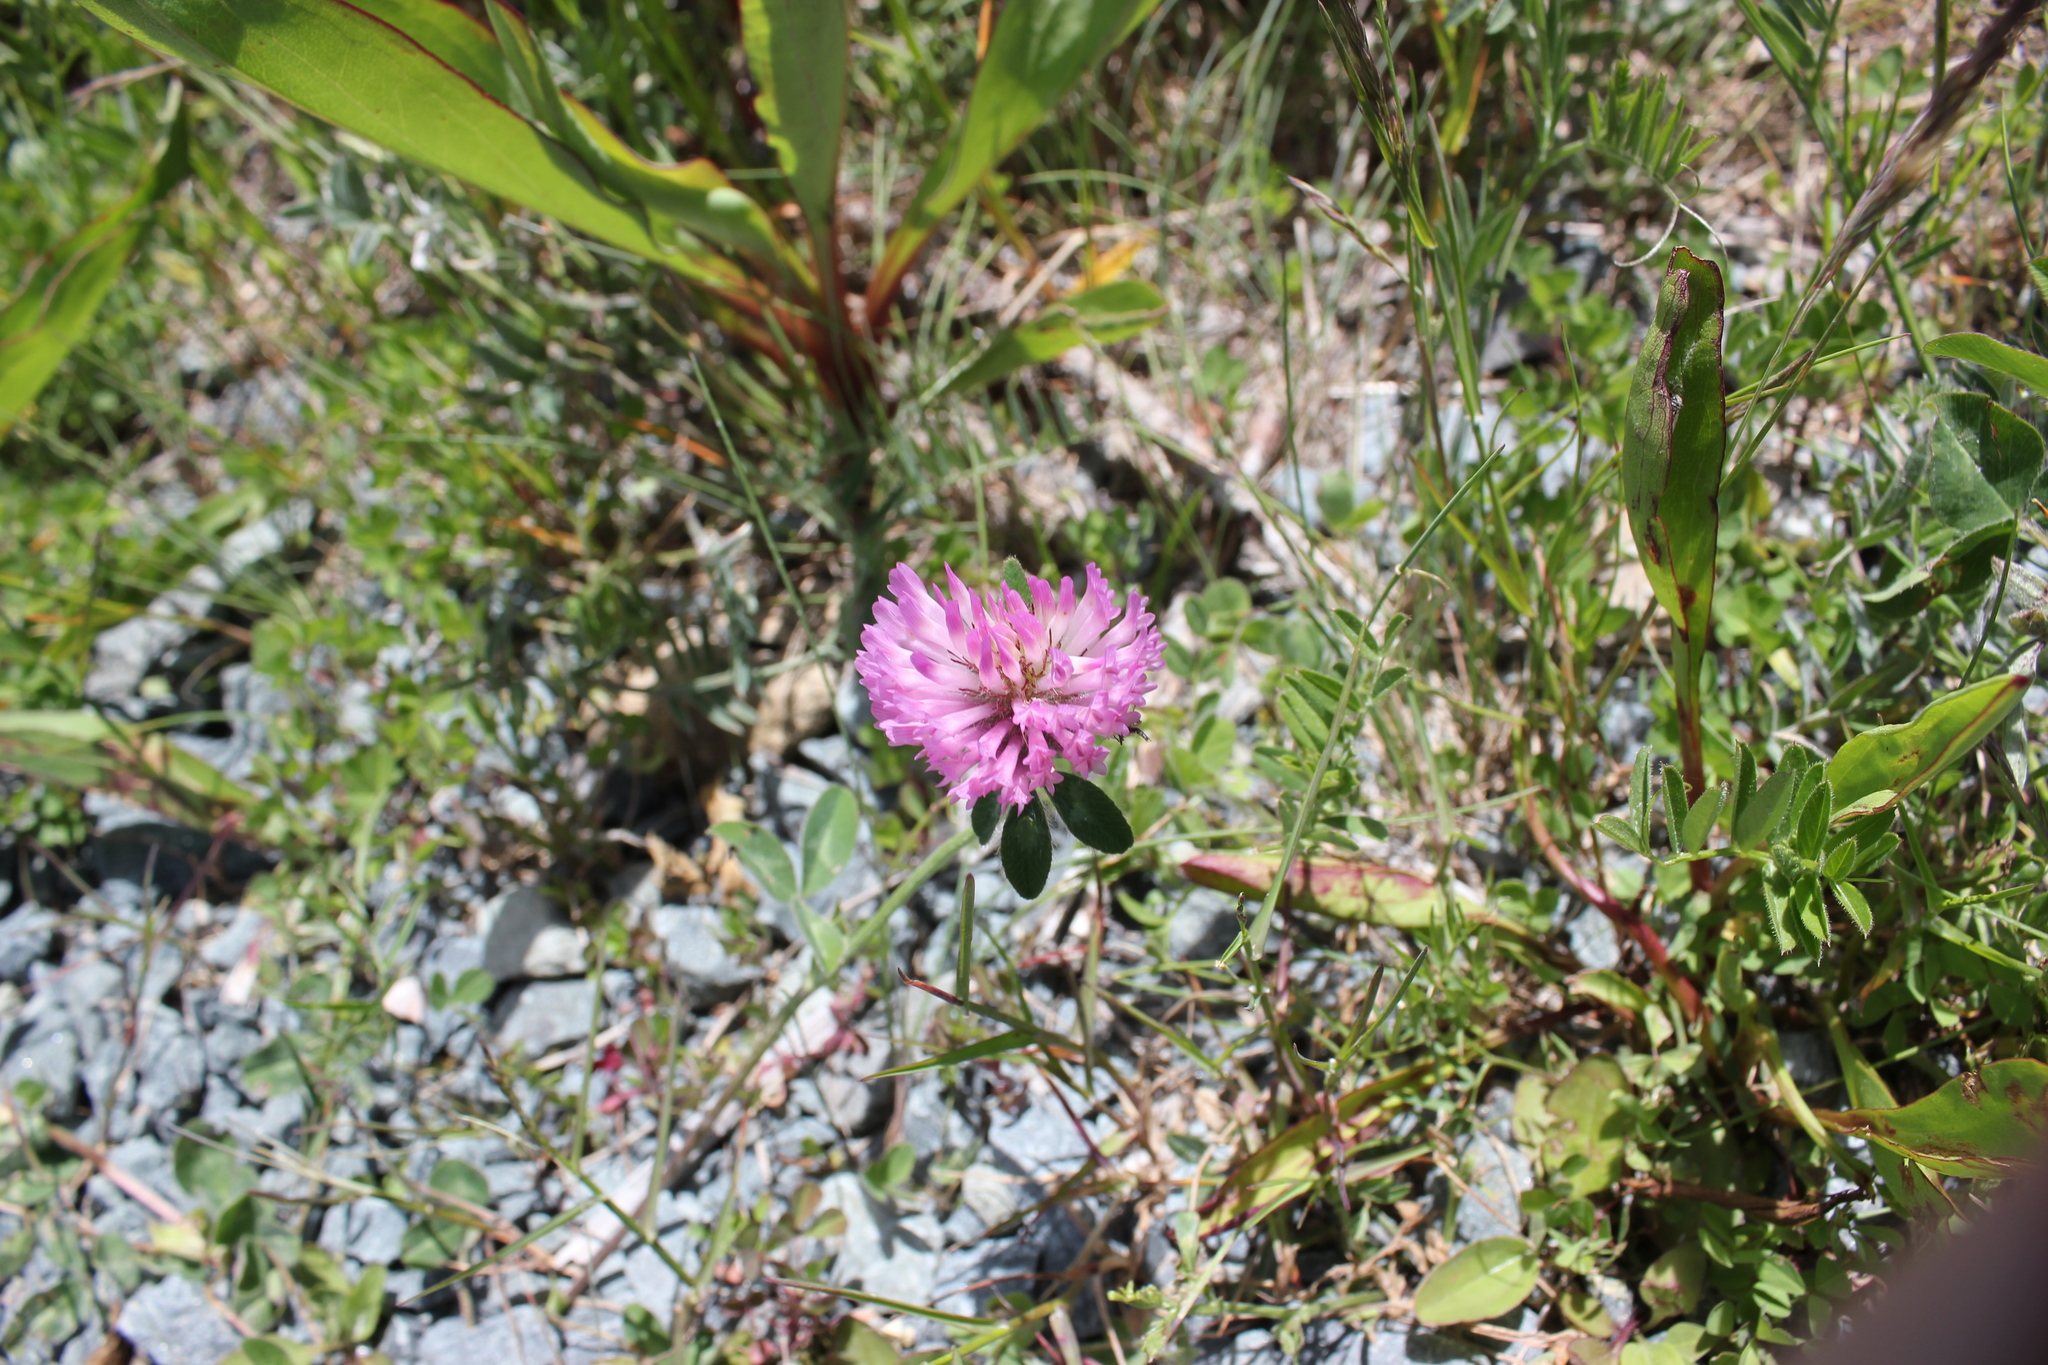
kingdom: Plantae
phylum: Tracheophyta
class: Magnoliopsida
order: Fabales
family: Fabaceae
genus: Trifolium
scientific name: Trifolium pratense
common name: Red clover
